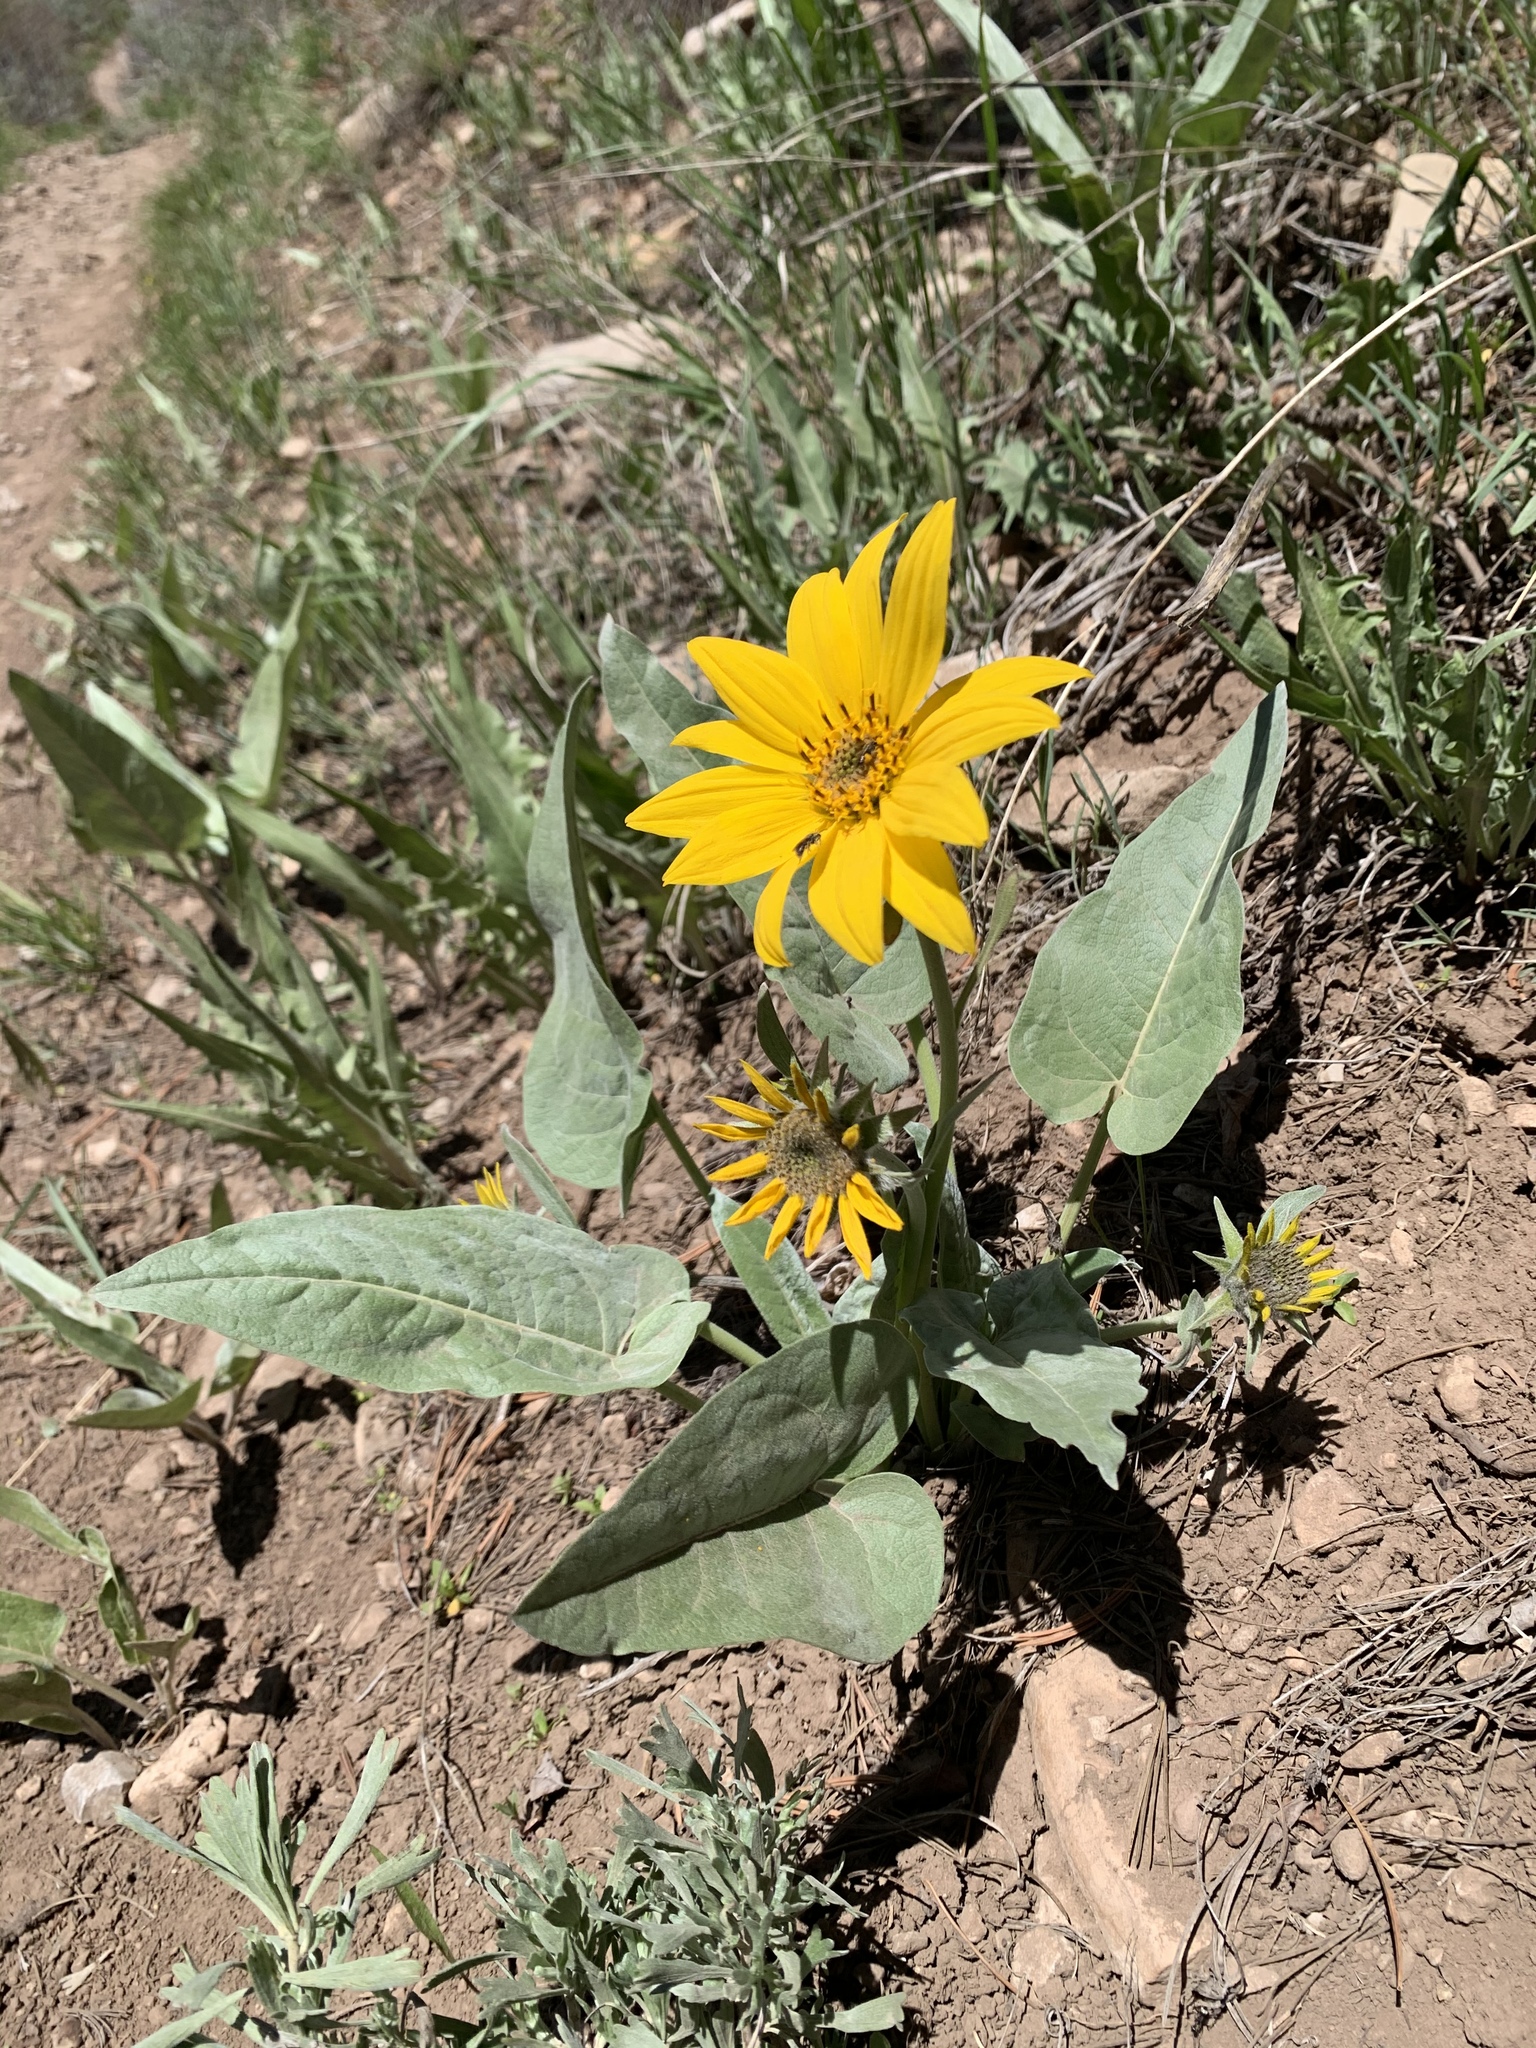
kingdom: Plantae
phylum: Tracheophyta
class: Magnoliopsida
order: Asterales
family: Asteraceae
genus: Wyethia
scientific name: Wyethia sagittata
